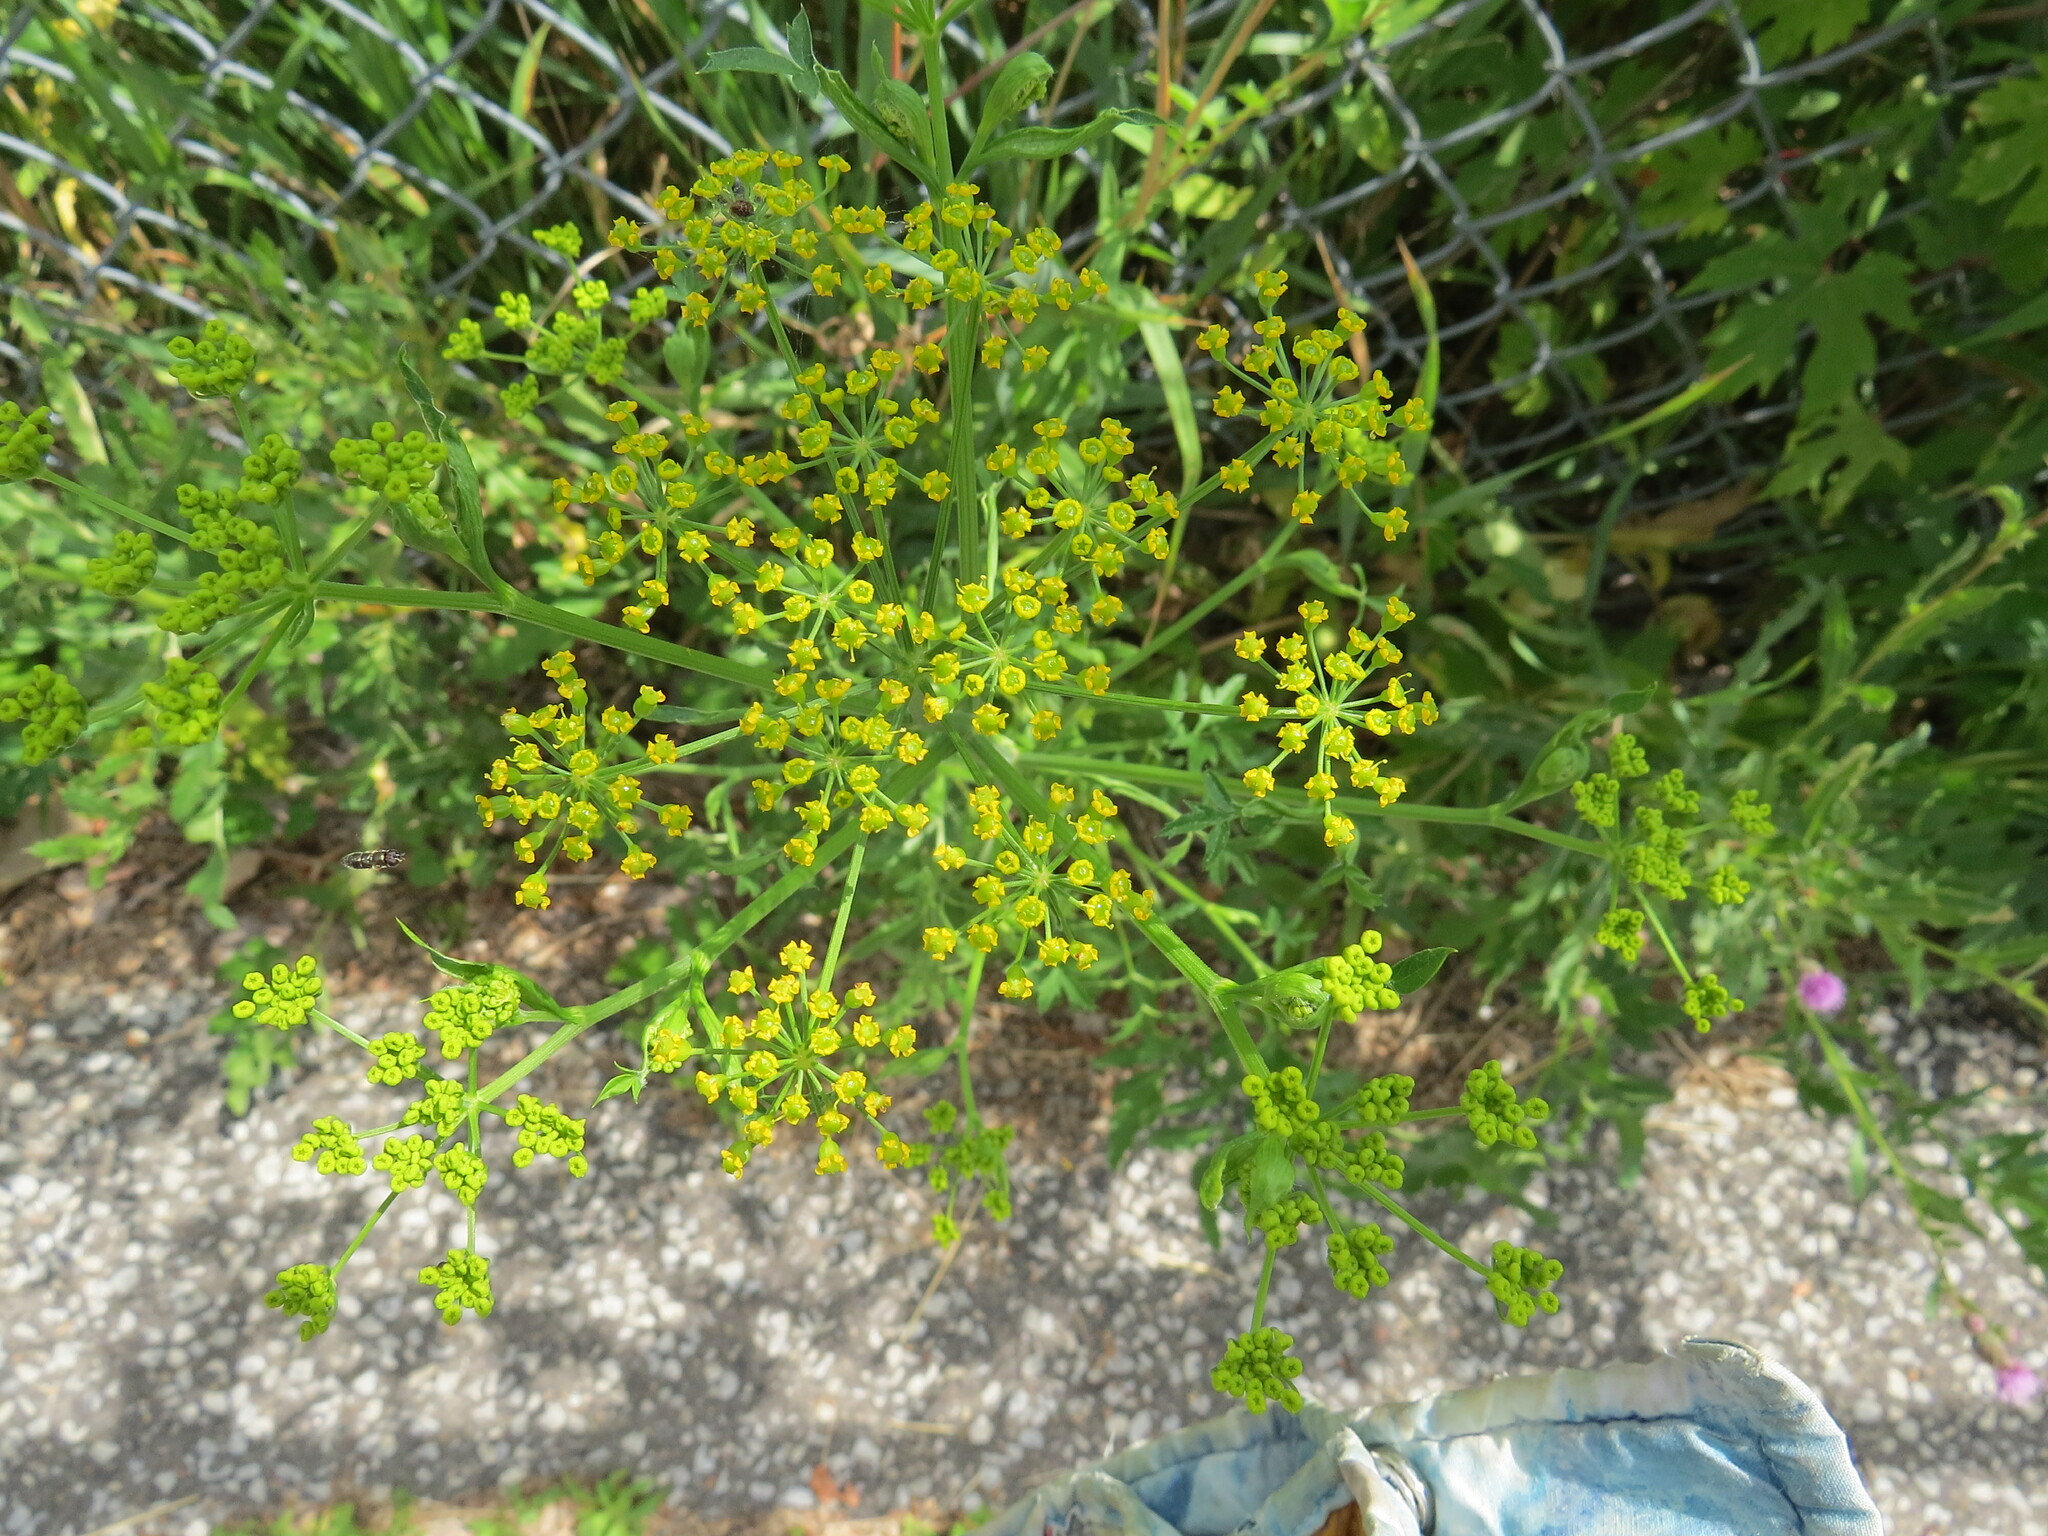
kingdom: Plantae
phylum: Tracheophyta
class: Magnoliopsida
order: Apiales
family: Apiaceae
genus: Pastinaca
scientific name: Pastinaca sativa
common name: Wild parsnip
